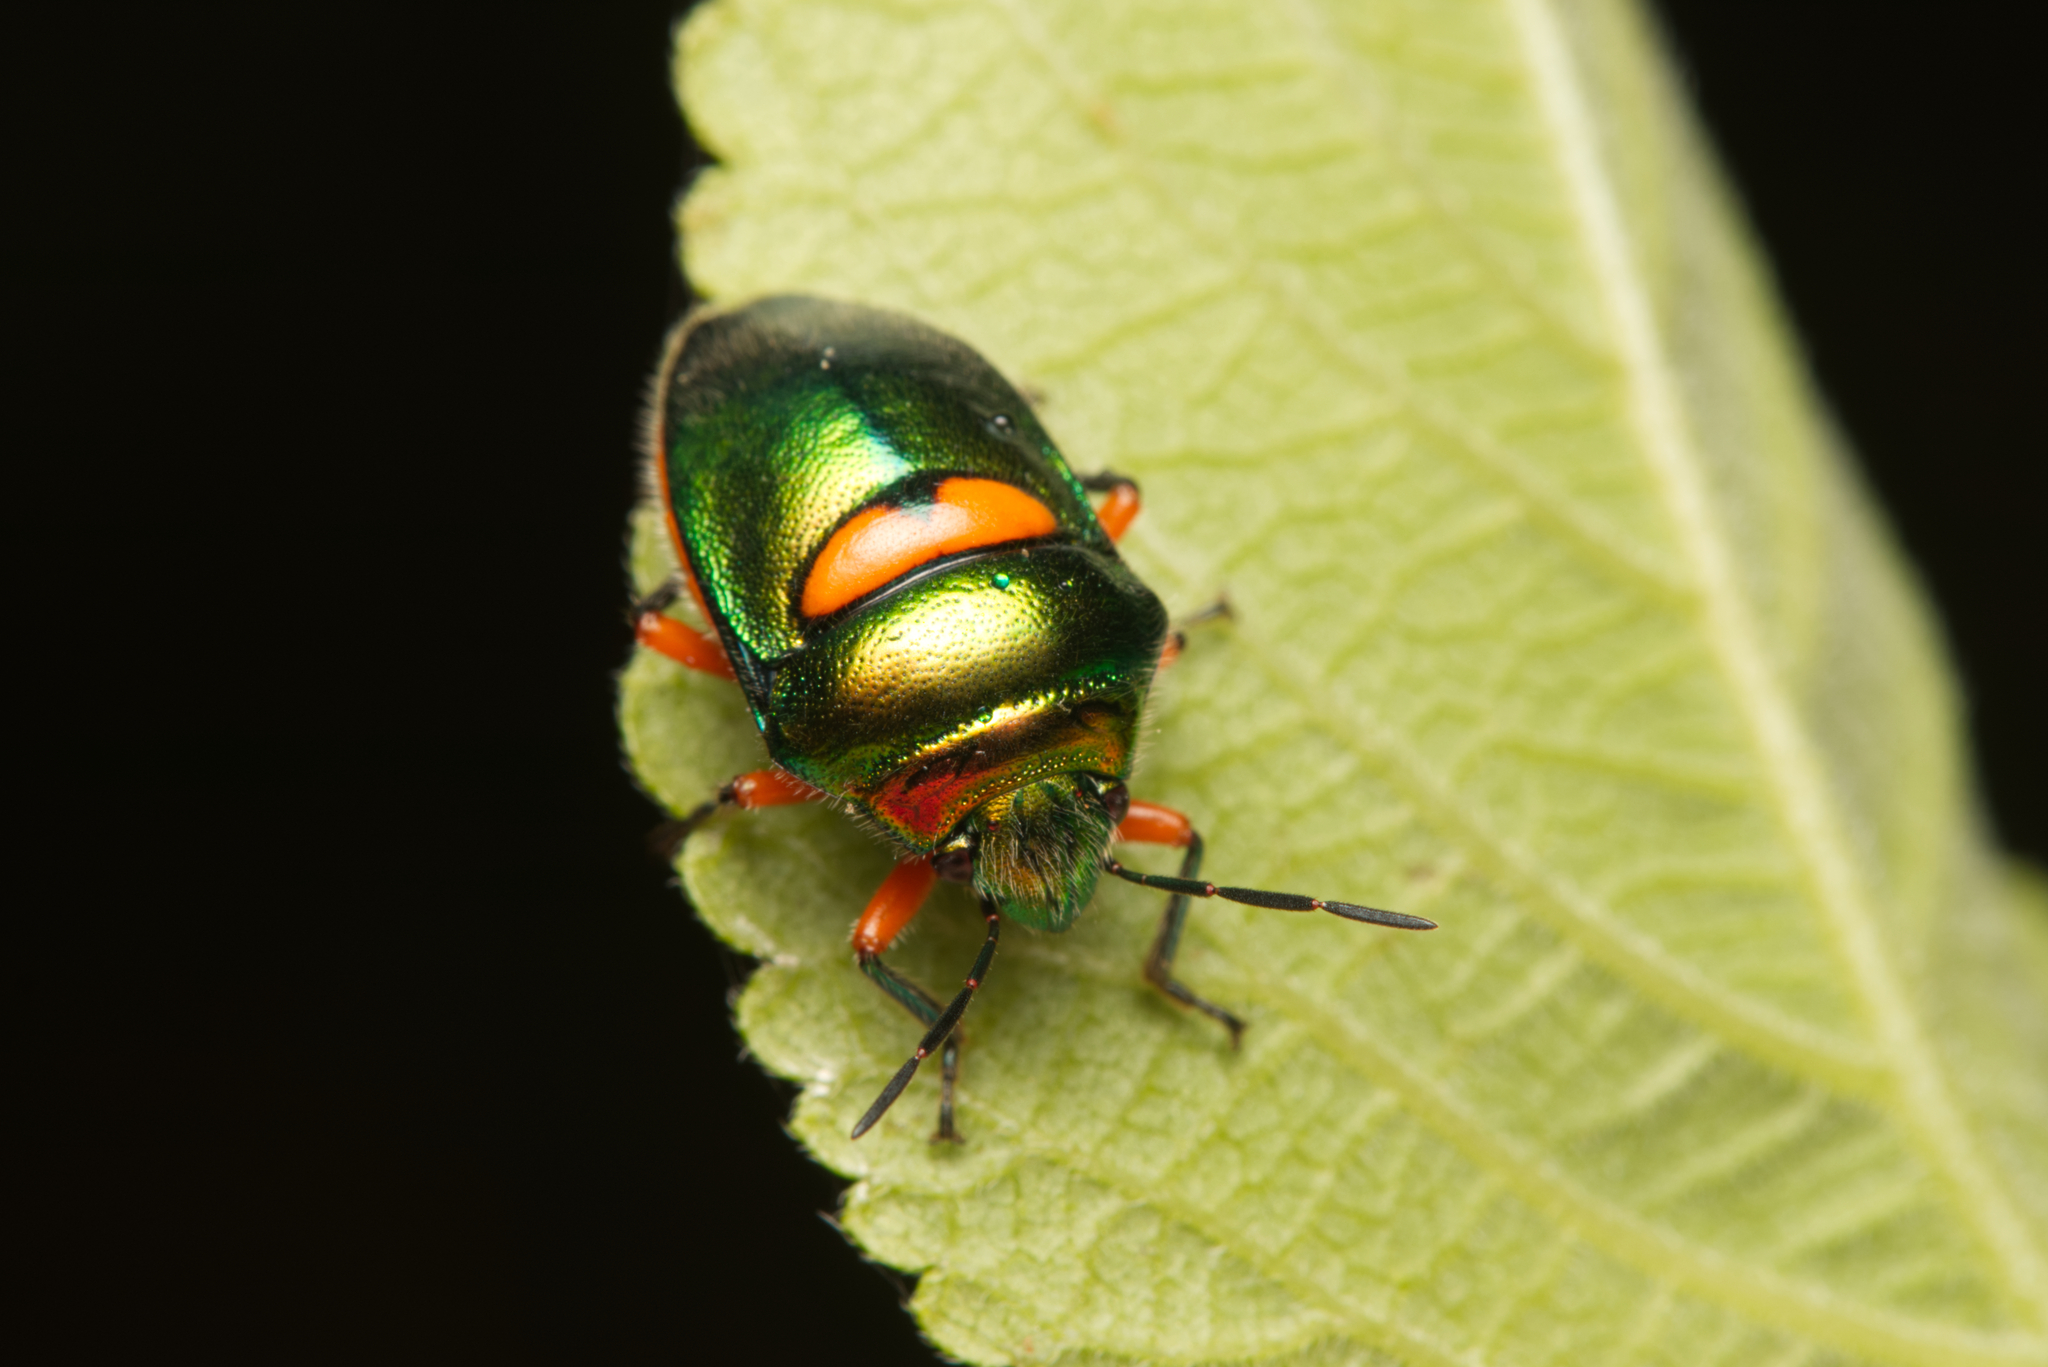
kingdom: Animalia
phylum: Arthropoda
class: Insecta
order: Hemiptera
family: Scutelleridae
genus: Lampromicra
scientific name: Lampromicra senator
